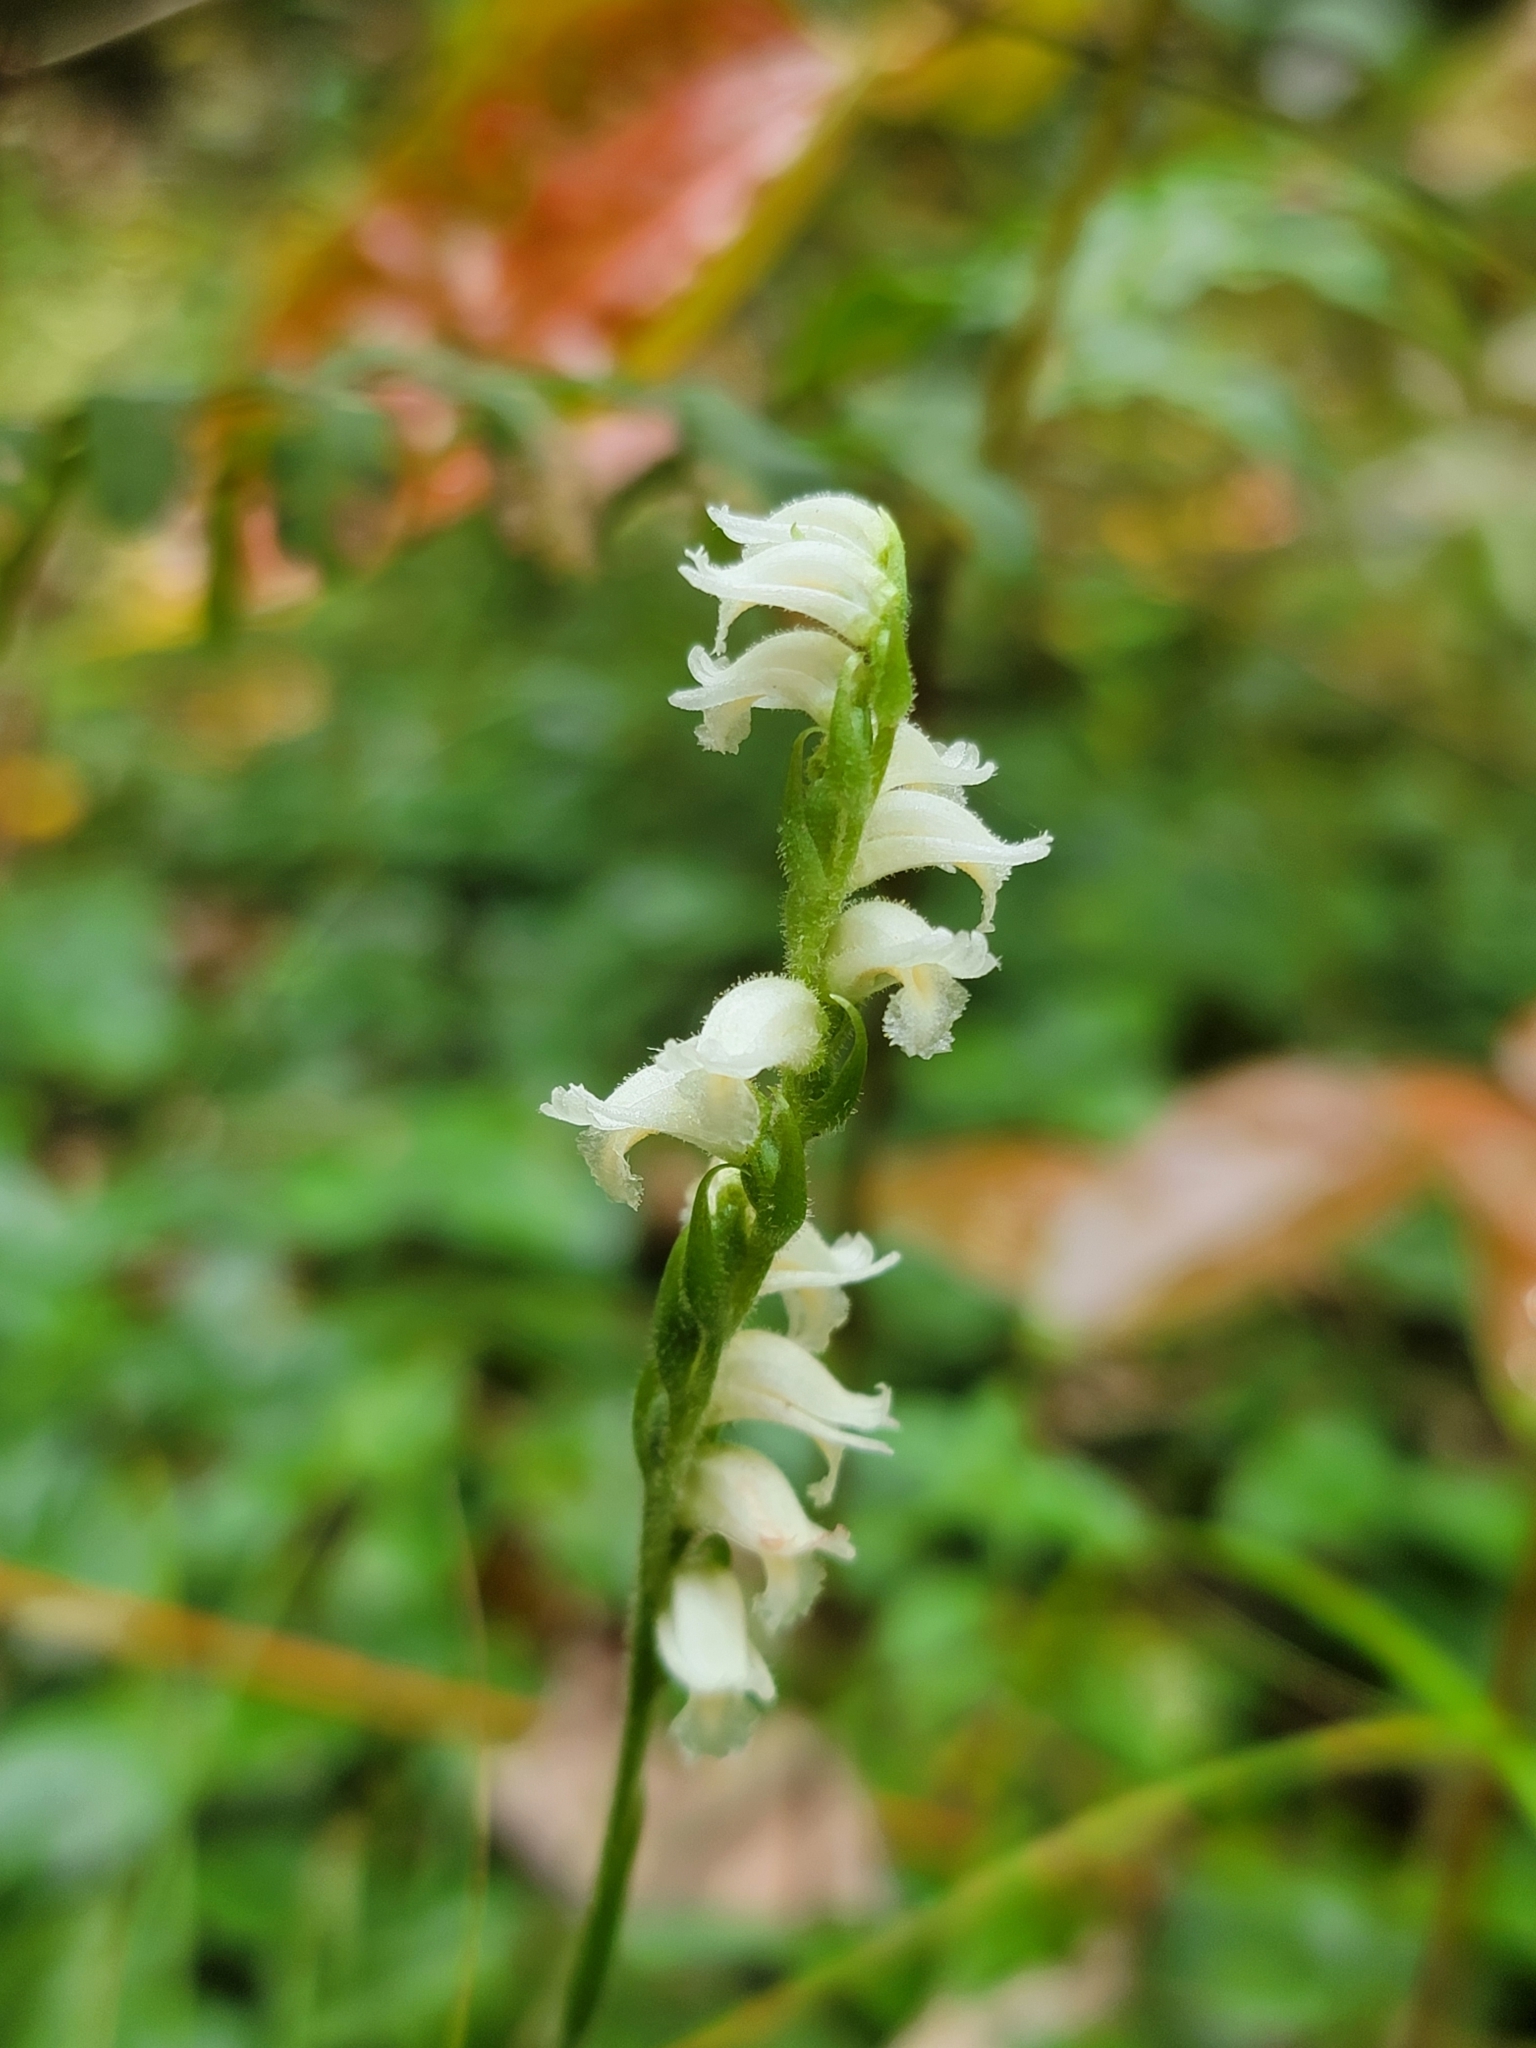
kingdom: Plantae
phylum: Tracheophyta
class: Liliopsida
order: Asparagales
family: Orchidaceae
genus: Spiranthes
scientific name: Spiranthes ochroleuca
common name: Yellow ladies'-tresses
